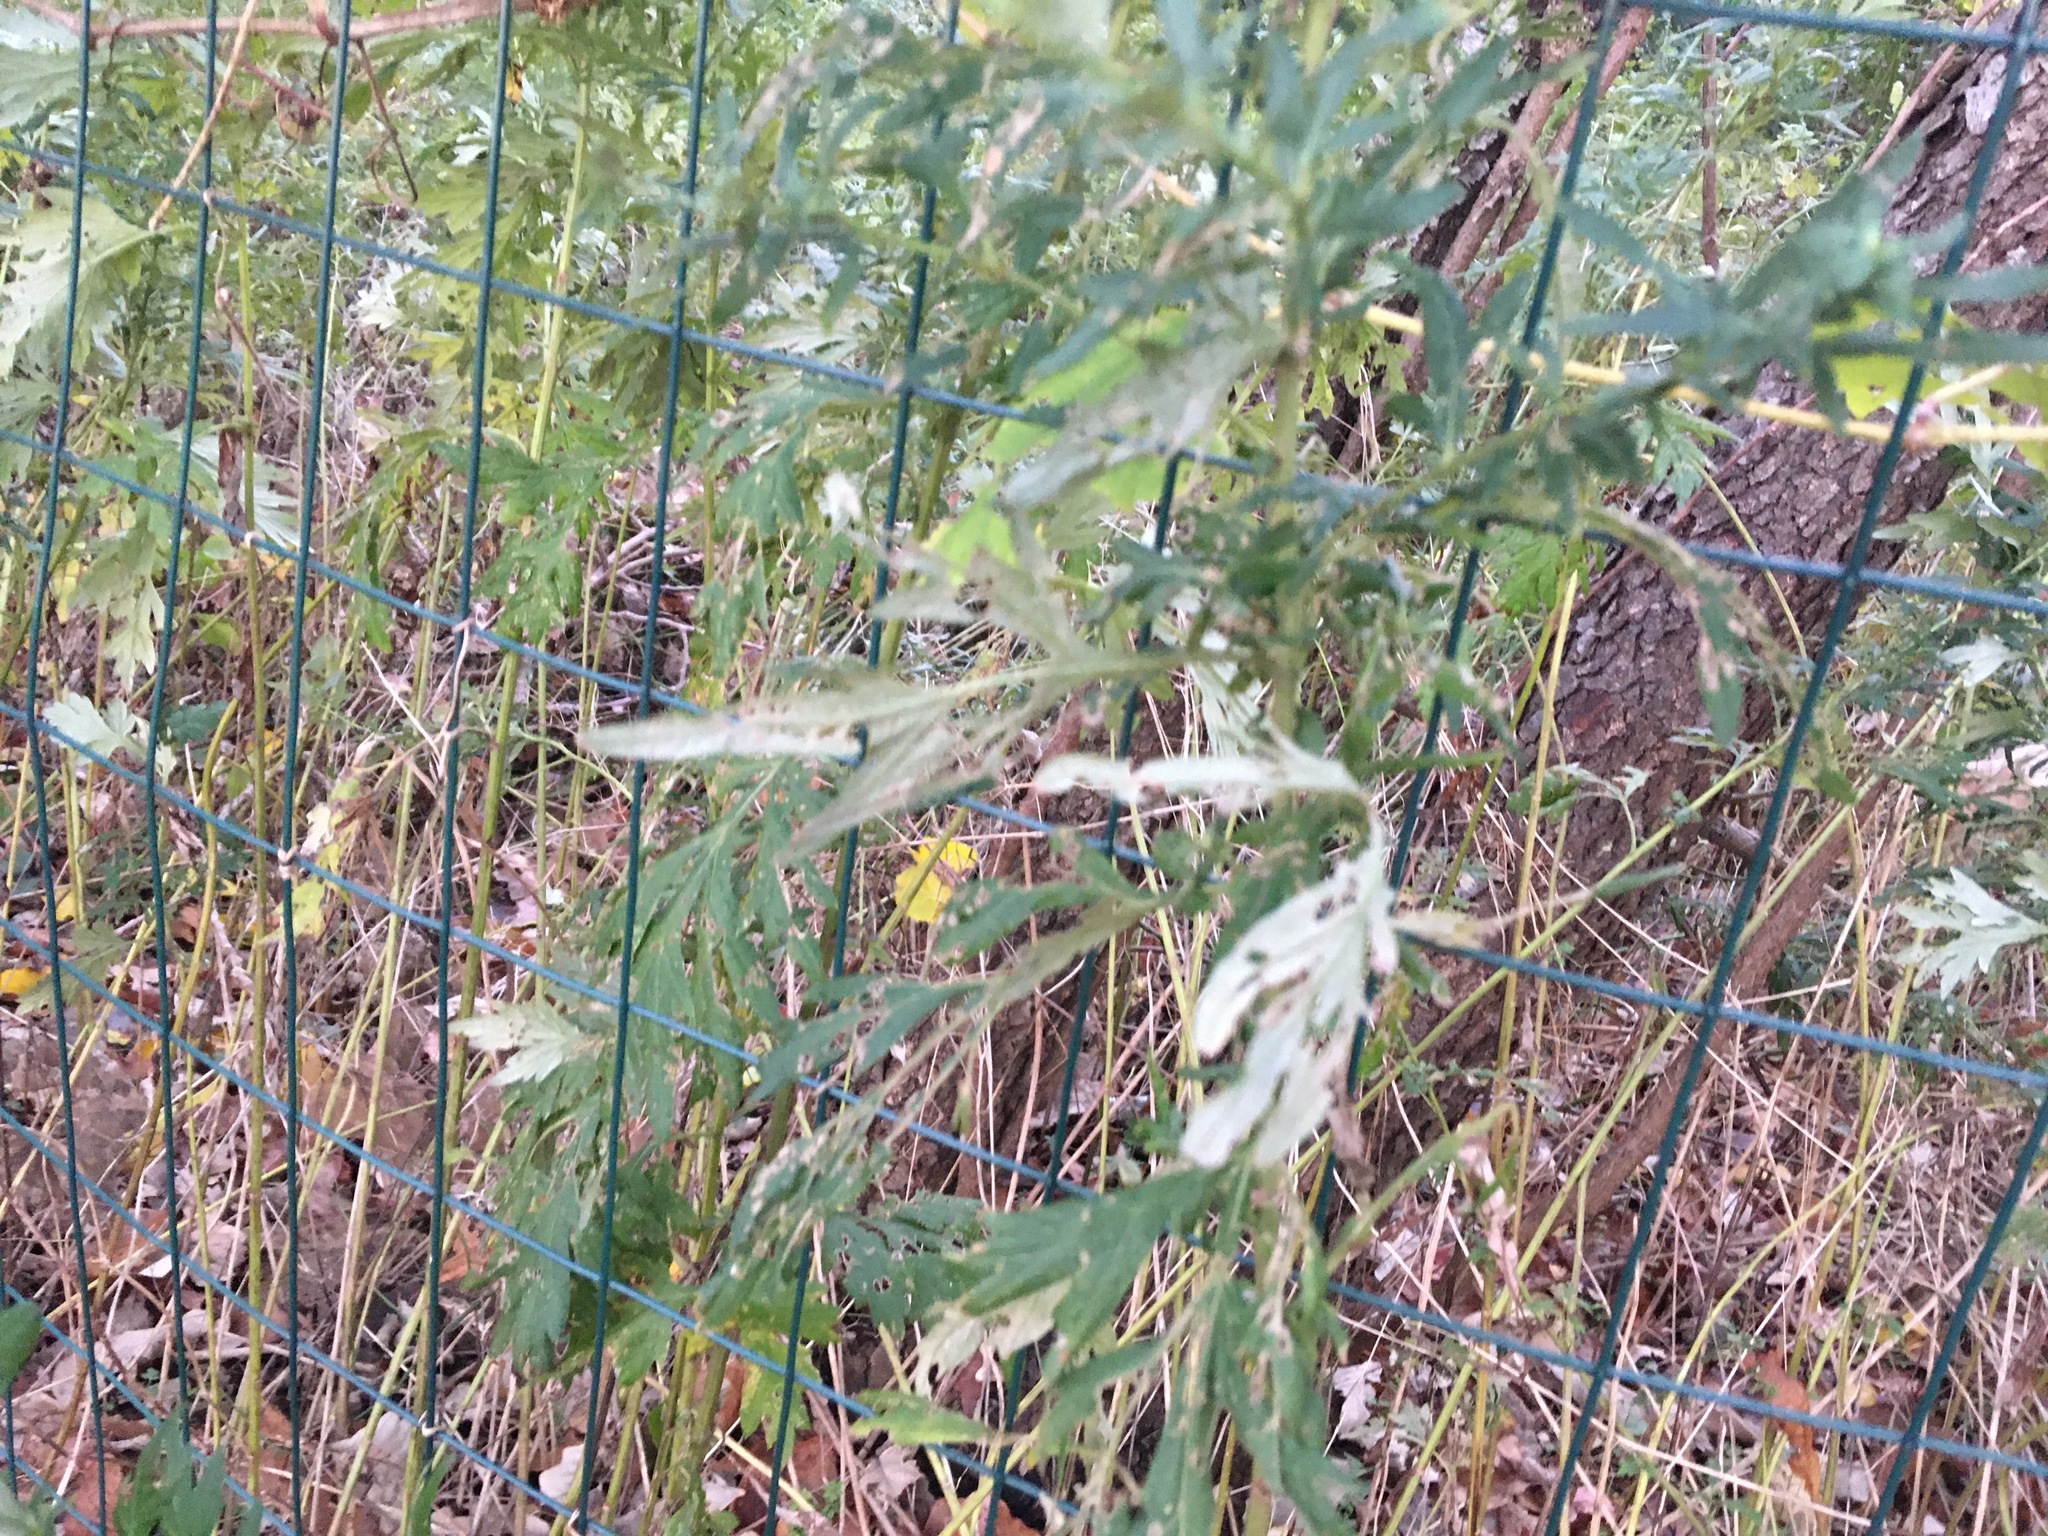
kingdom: Plantae
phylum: Tracheophyta
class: Magnoliopsida
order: Asterales
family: Asteraceae
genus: Artemisia
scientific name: Artemisia vulgaris
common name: Mugwort
